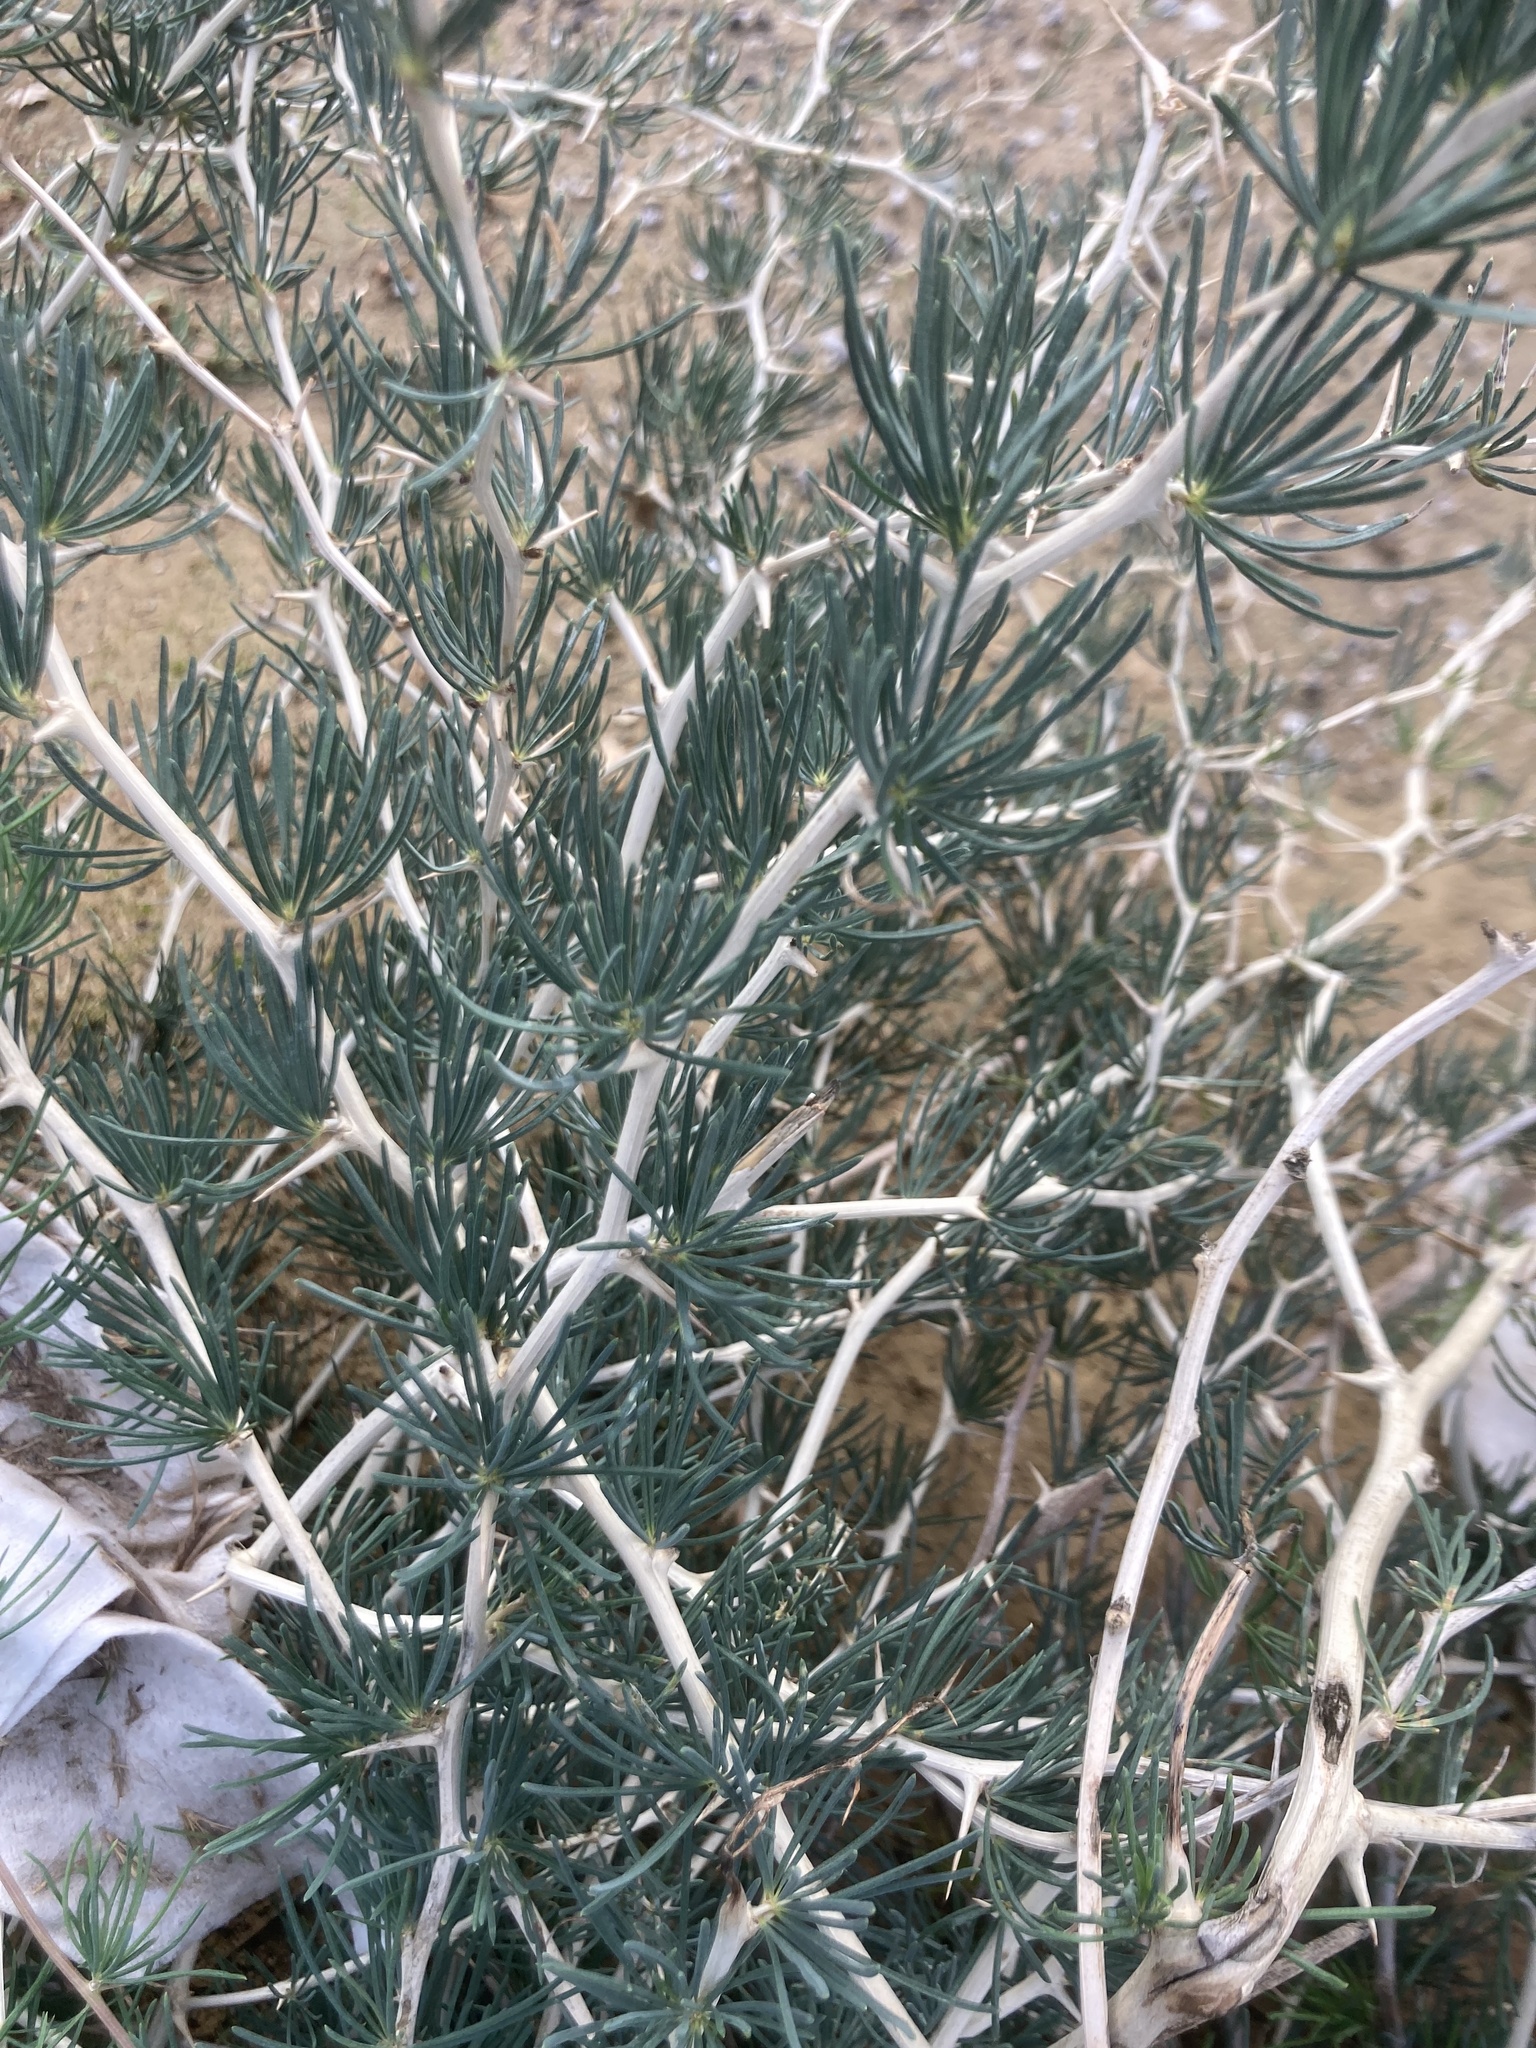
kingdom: Plantae
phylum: Tracheophyta
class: Liliopsida
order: Asparagales
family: Asparagaceae
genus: Asparagus
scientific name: Asparagus albus
